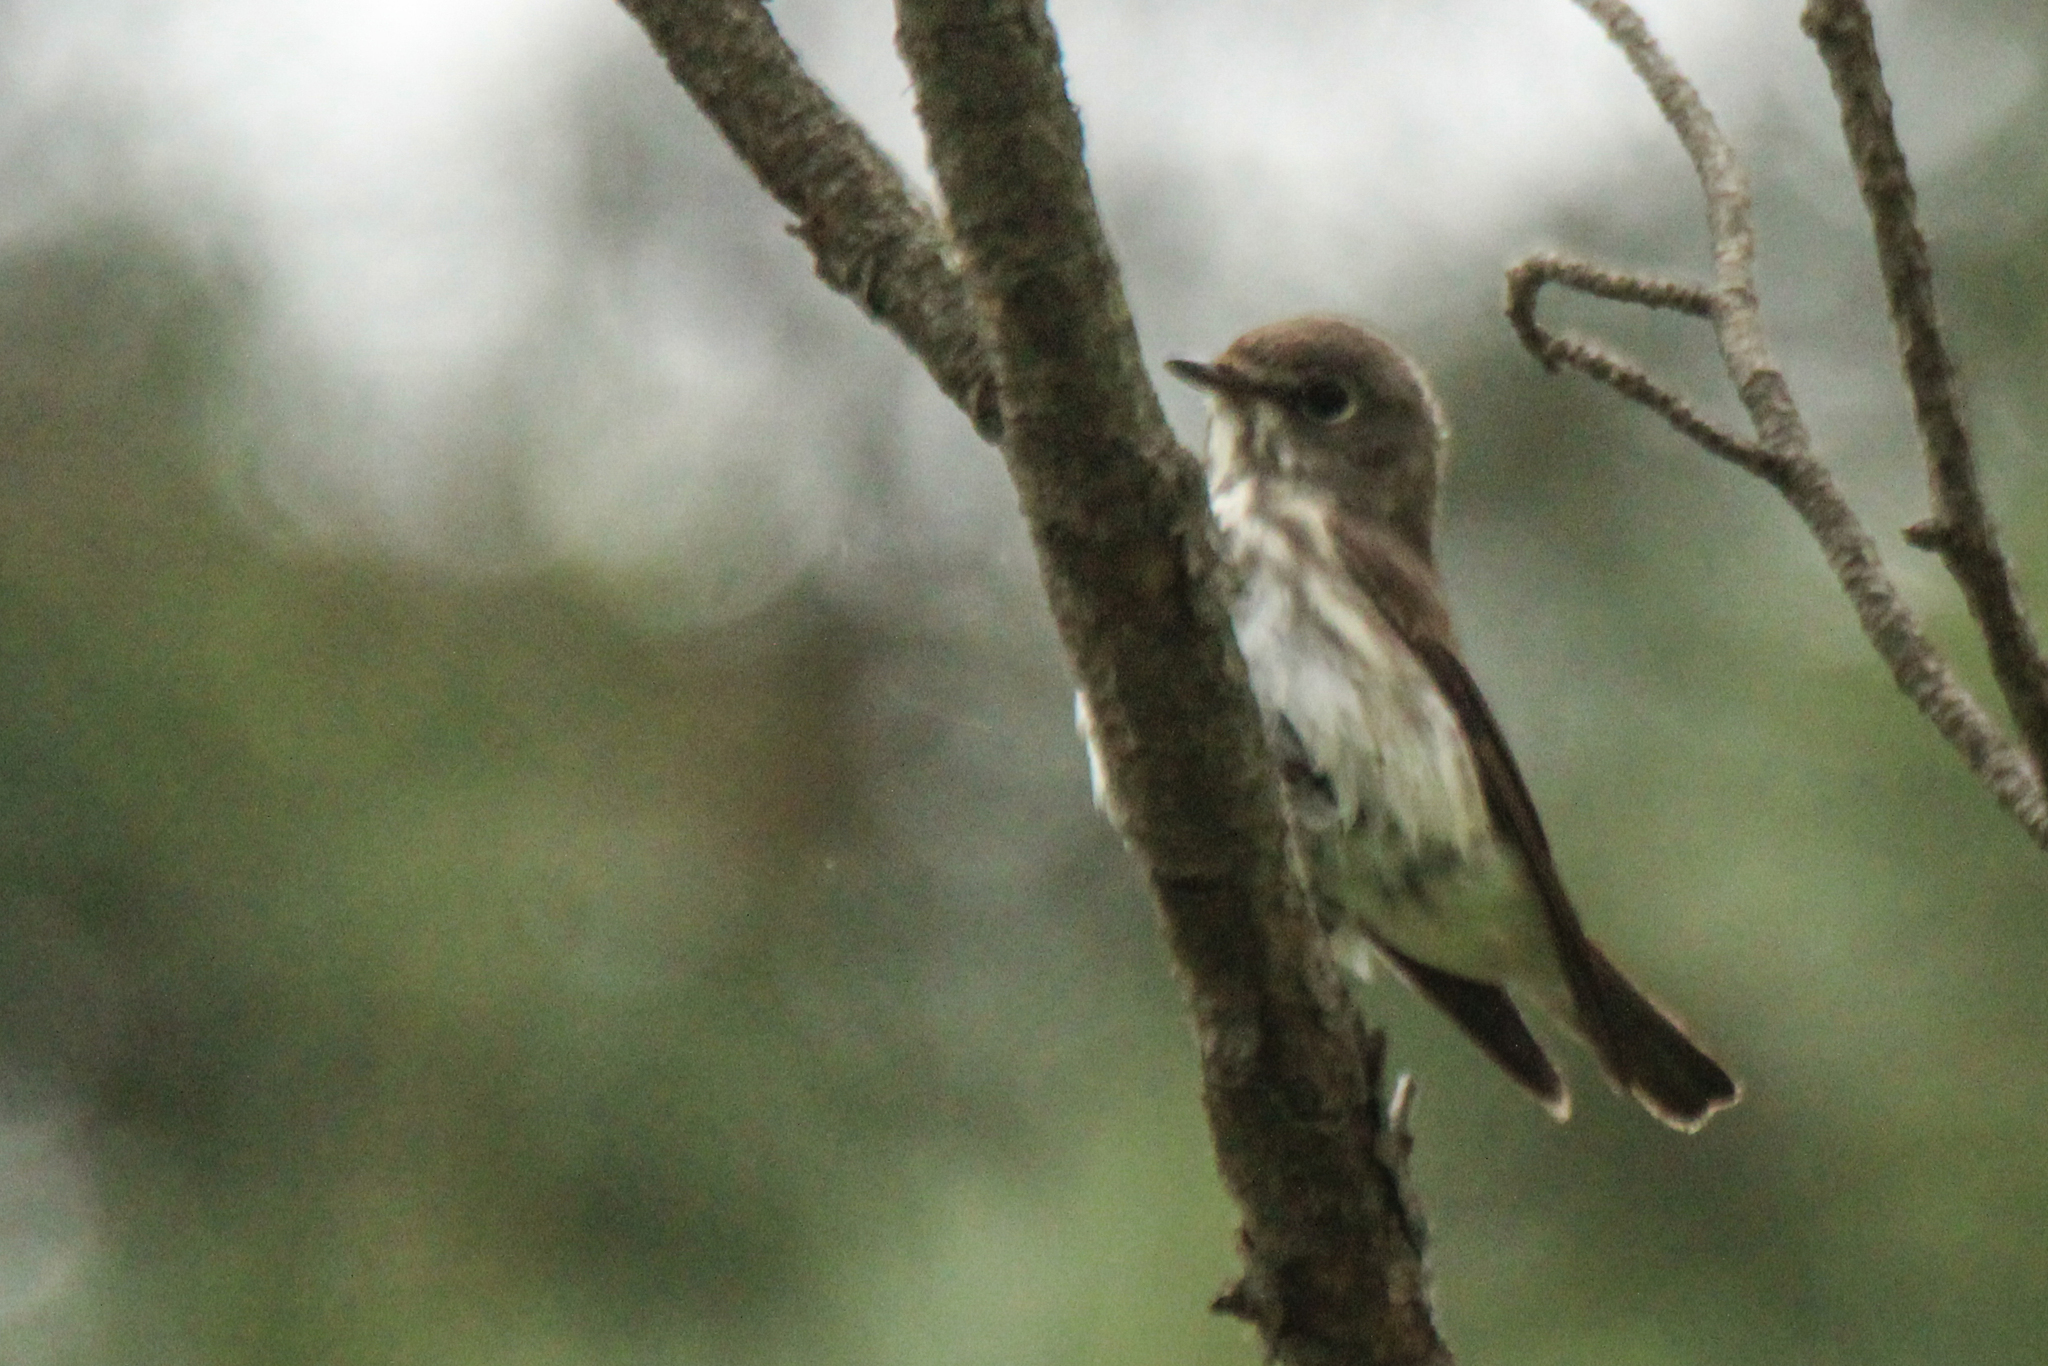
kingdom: Animalia
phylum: Chordata
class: Aves
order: Passeriformes
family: Muscicapidae
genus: Muscicapa
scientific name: Muscicapa griseisticta
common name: Gray-streaked flycatcher
